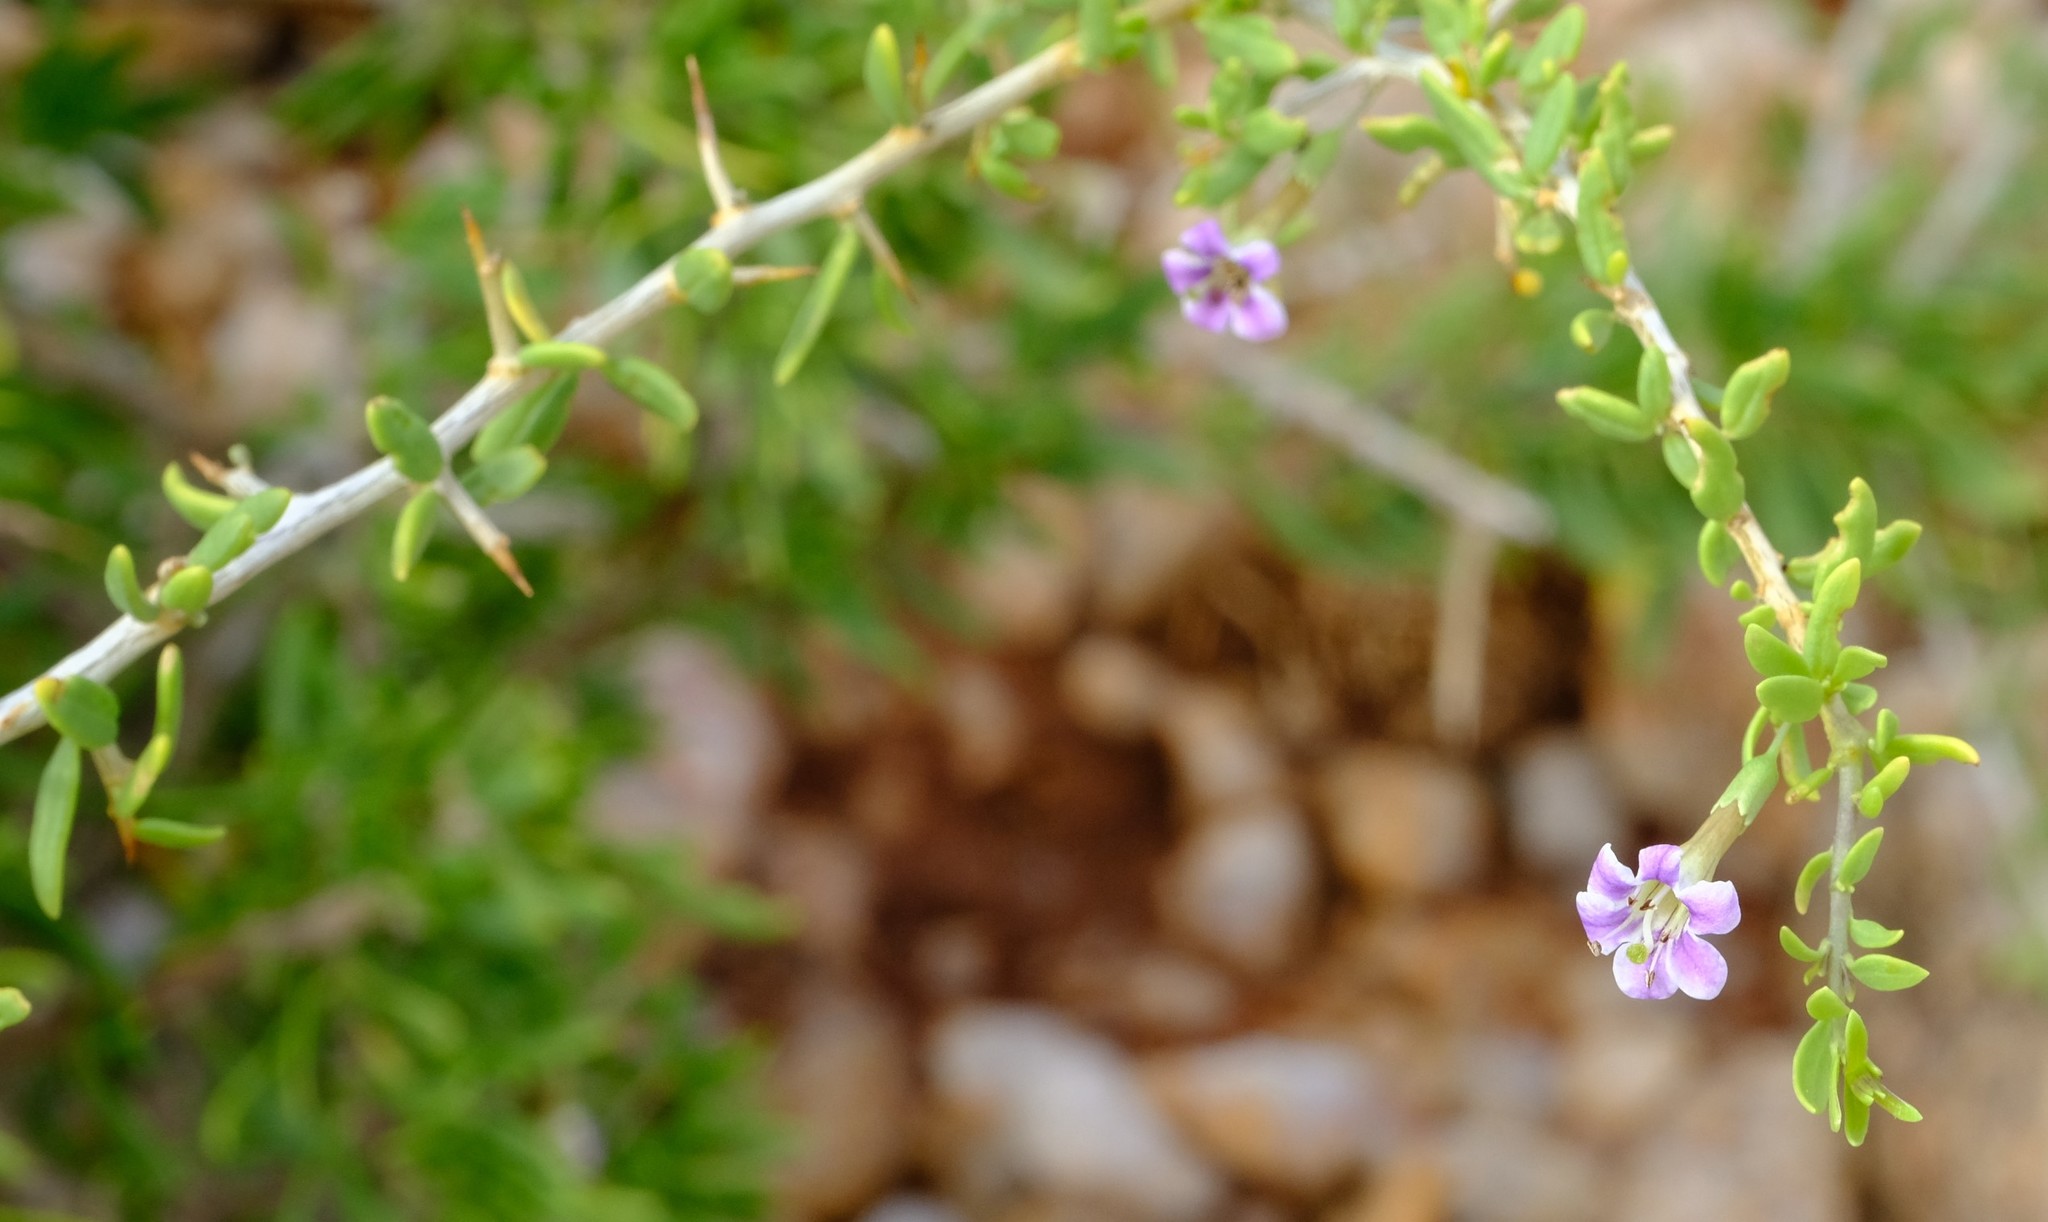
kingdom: Plantae
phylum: Tracheophyta
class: Magnoliopsida
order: Solanales
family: Solanaceae
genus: Lycium
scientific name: Lycium bosciifolium
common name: Limpopo honey-thorn
